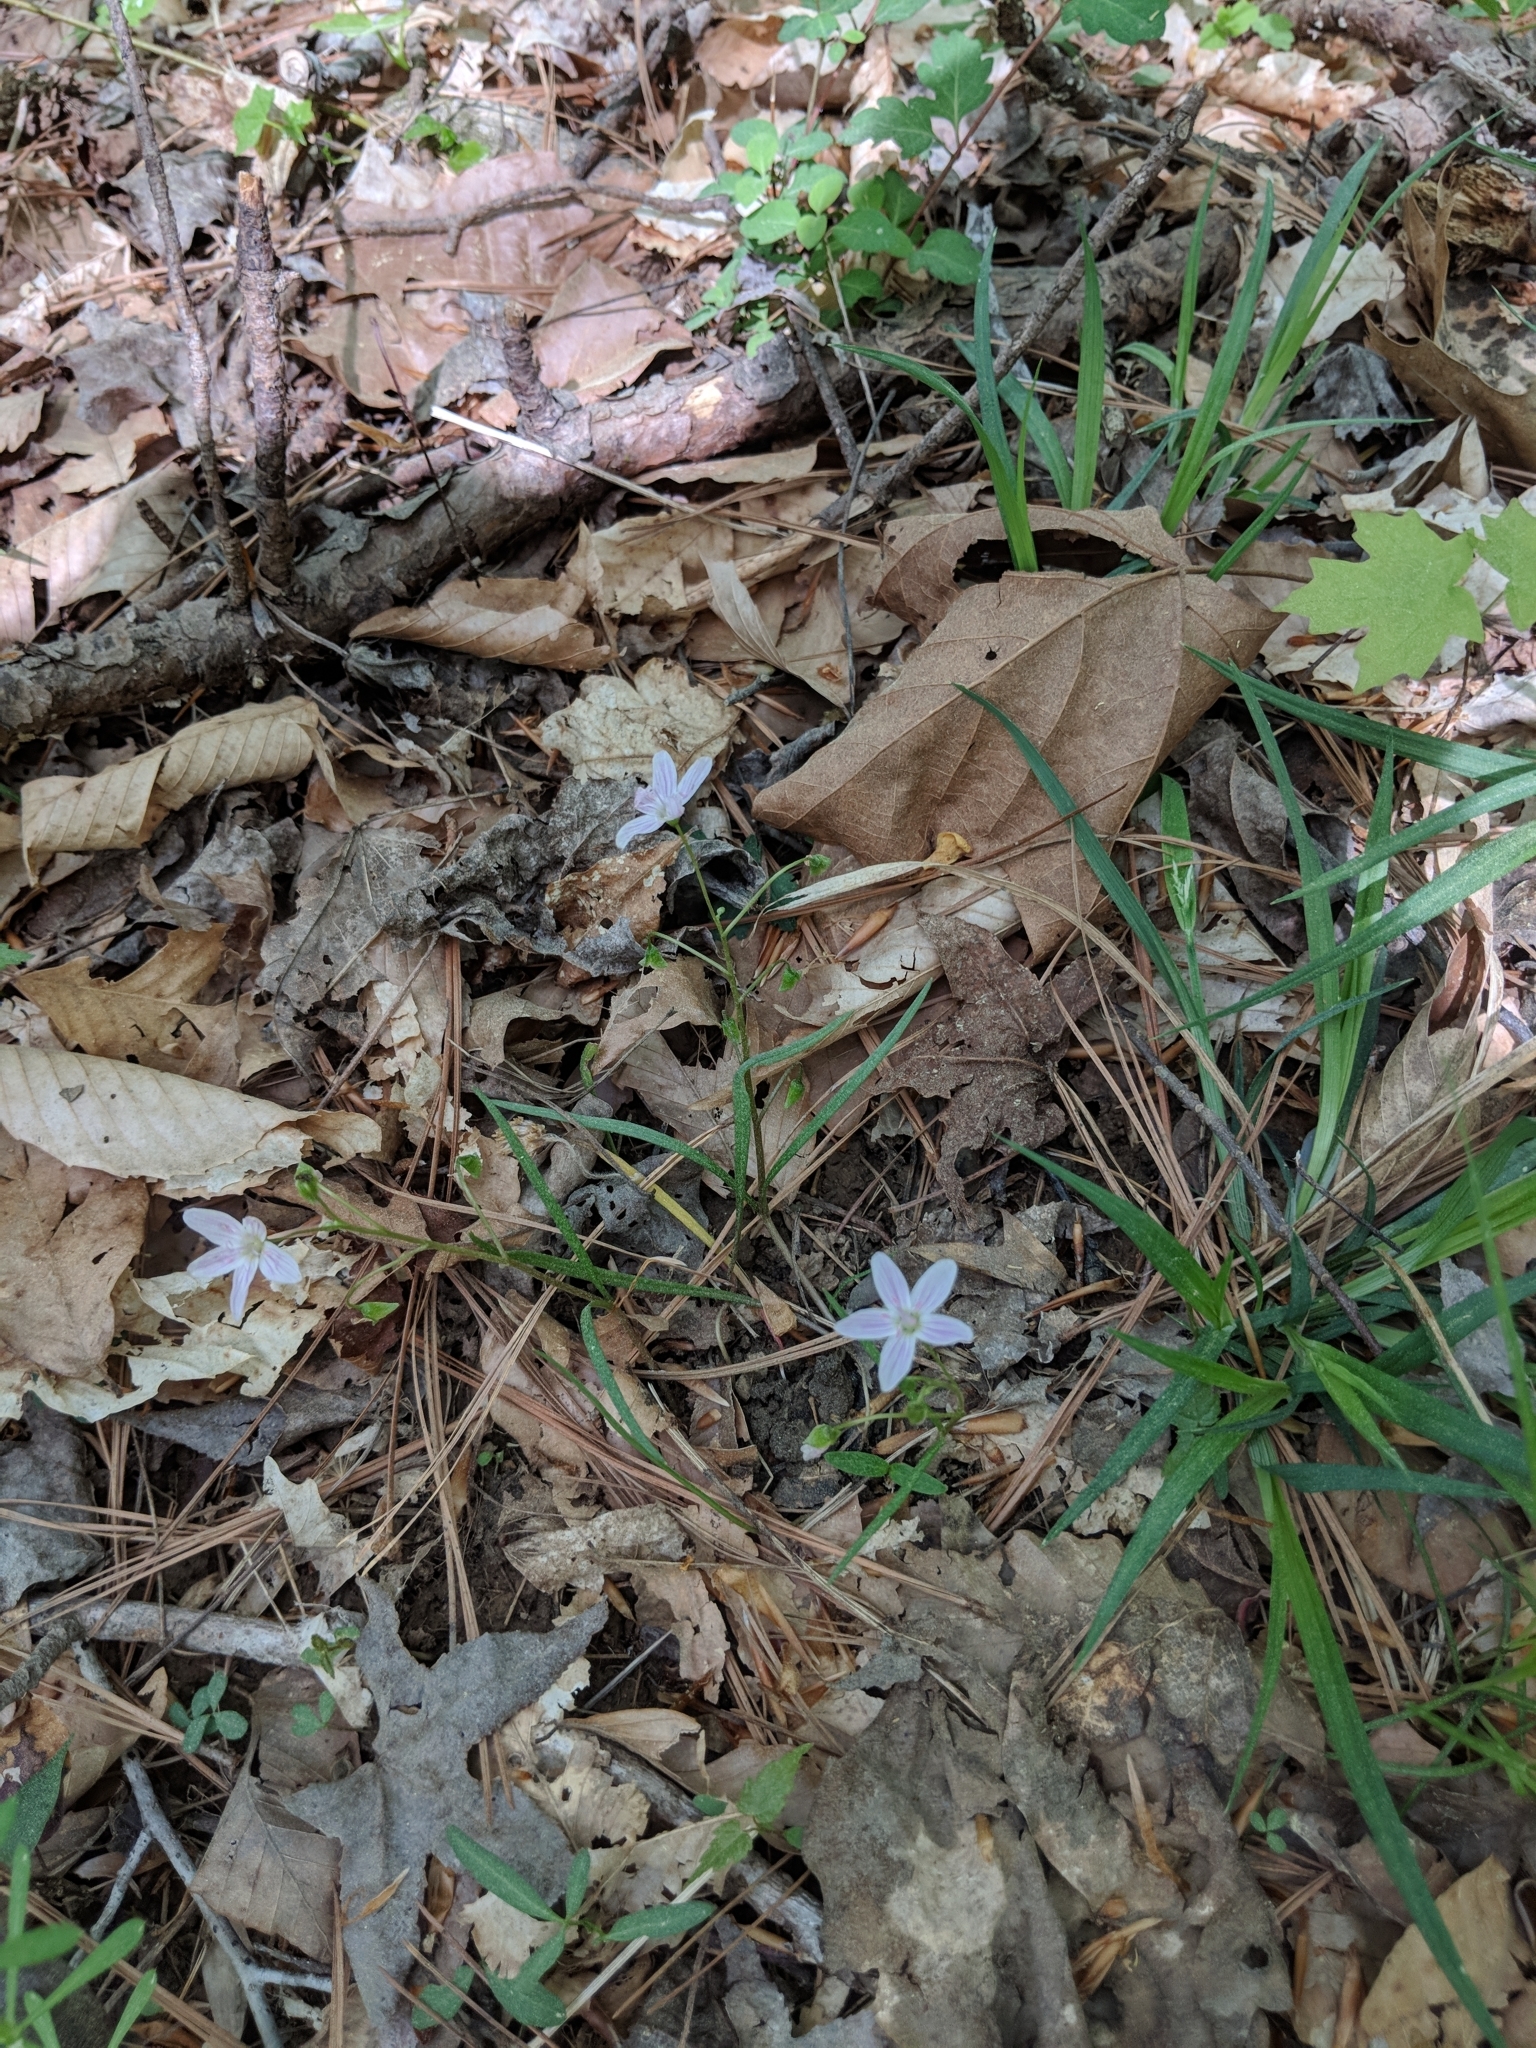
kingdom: Plantae
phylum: Tracheophyta
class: Magnoliopsida
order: Caryophyllales
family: Montiaceae
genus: Claytonia
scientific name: Claytonia virginica
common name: Virginia springbeauty
